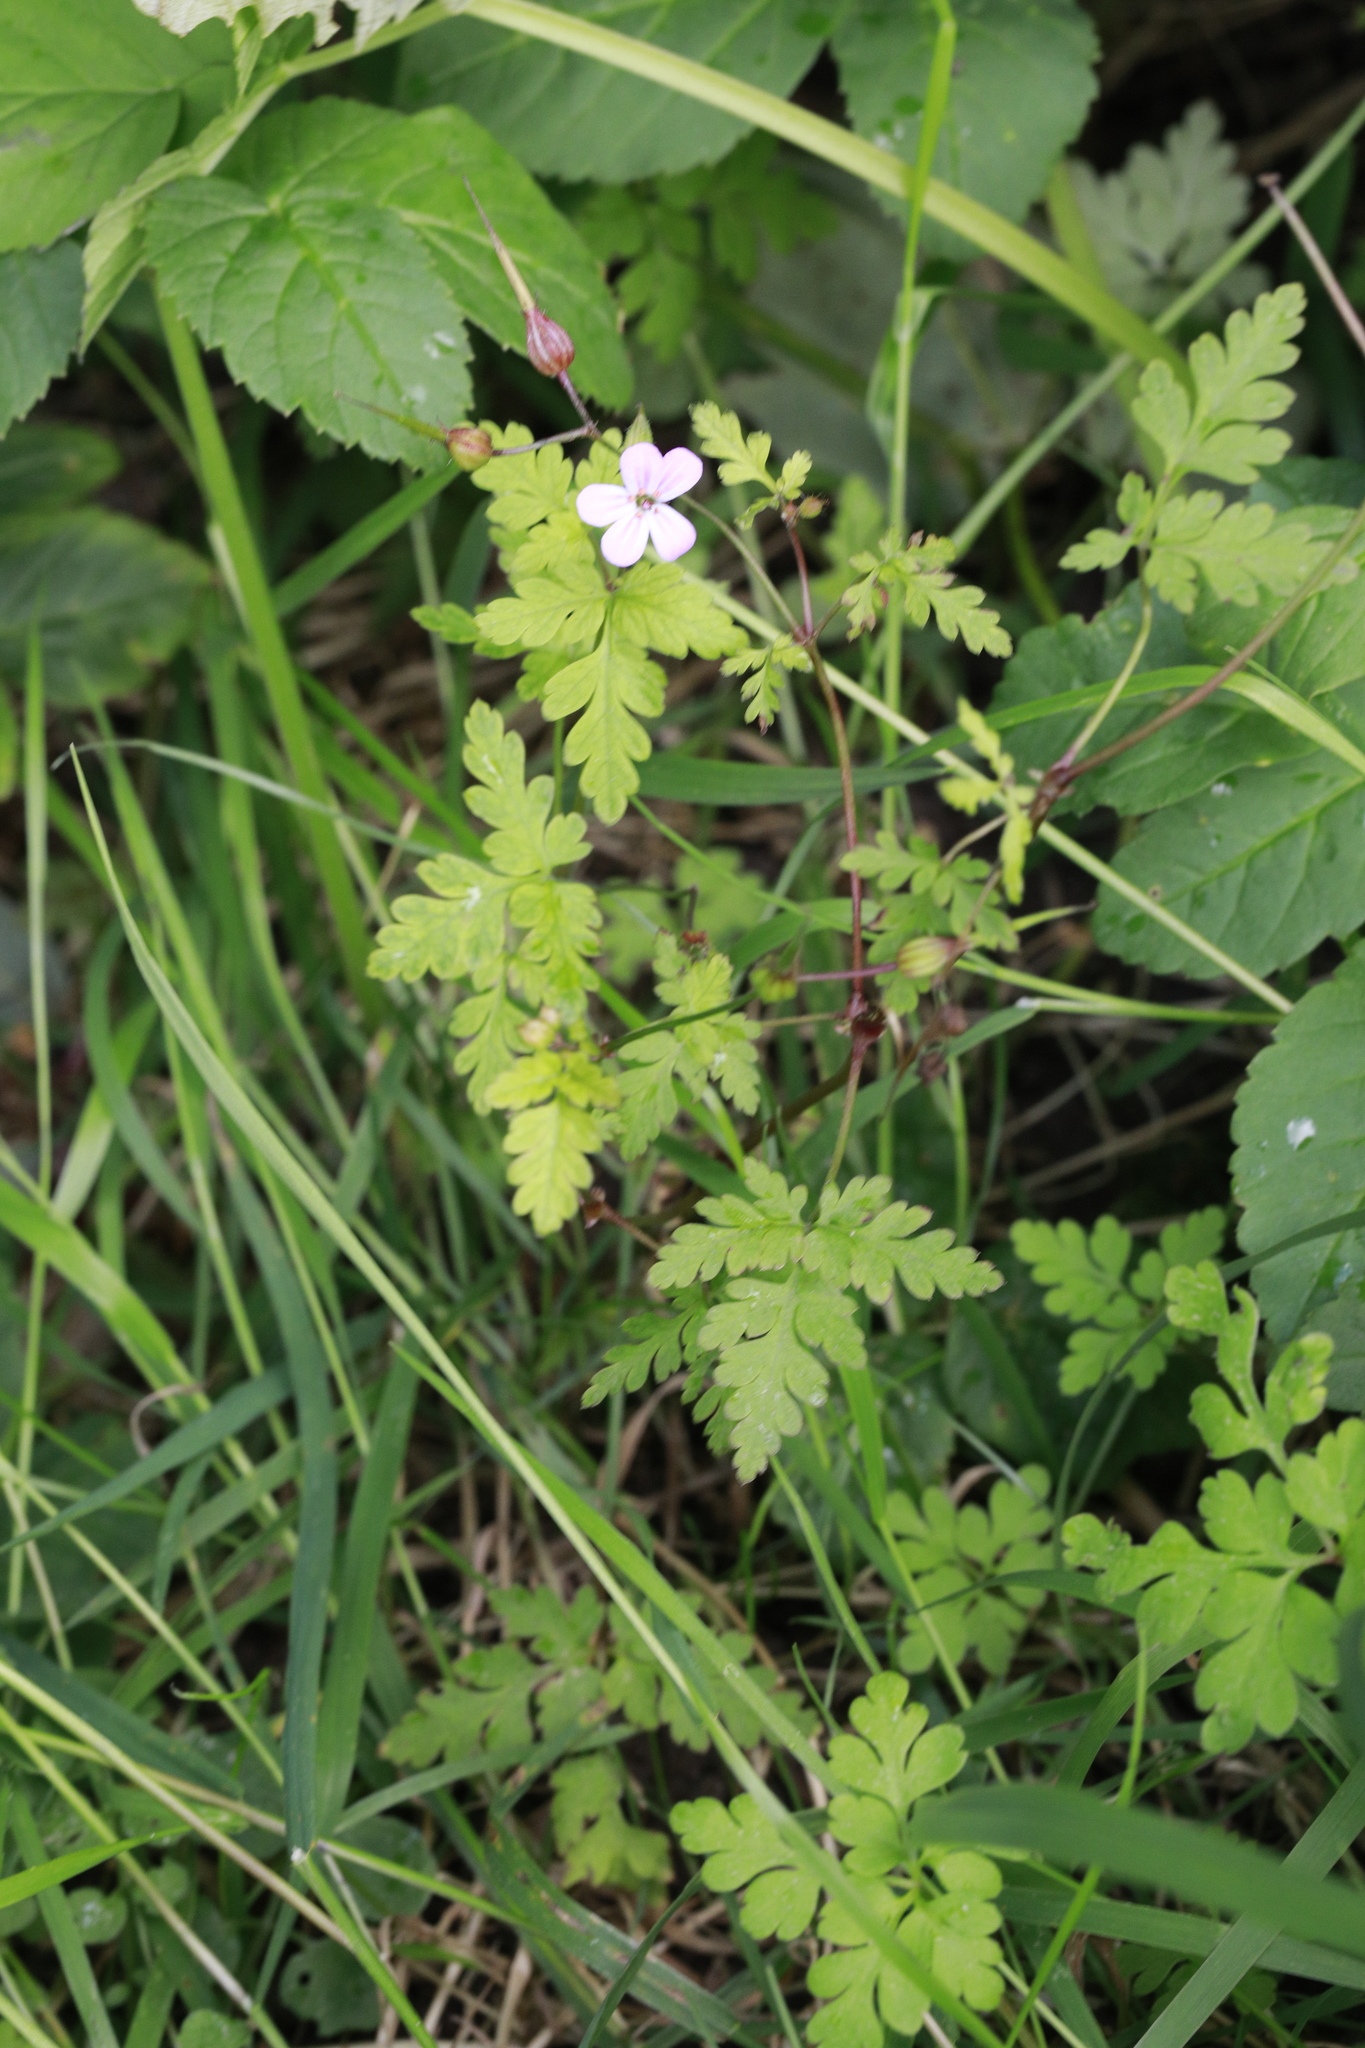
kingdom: Plantae
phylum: Tracheophyta
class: Magnoliopsida
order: Geraniales
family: Geraniaceae
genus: Geranium
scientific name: Geranium robertianum
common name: Herb-robert
